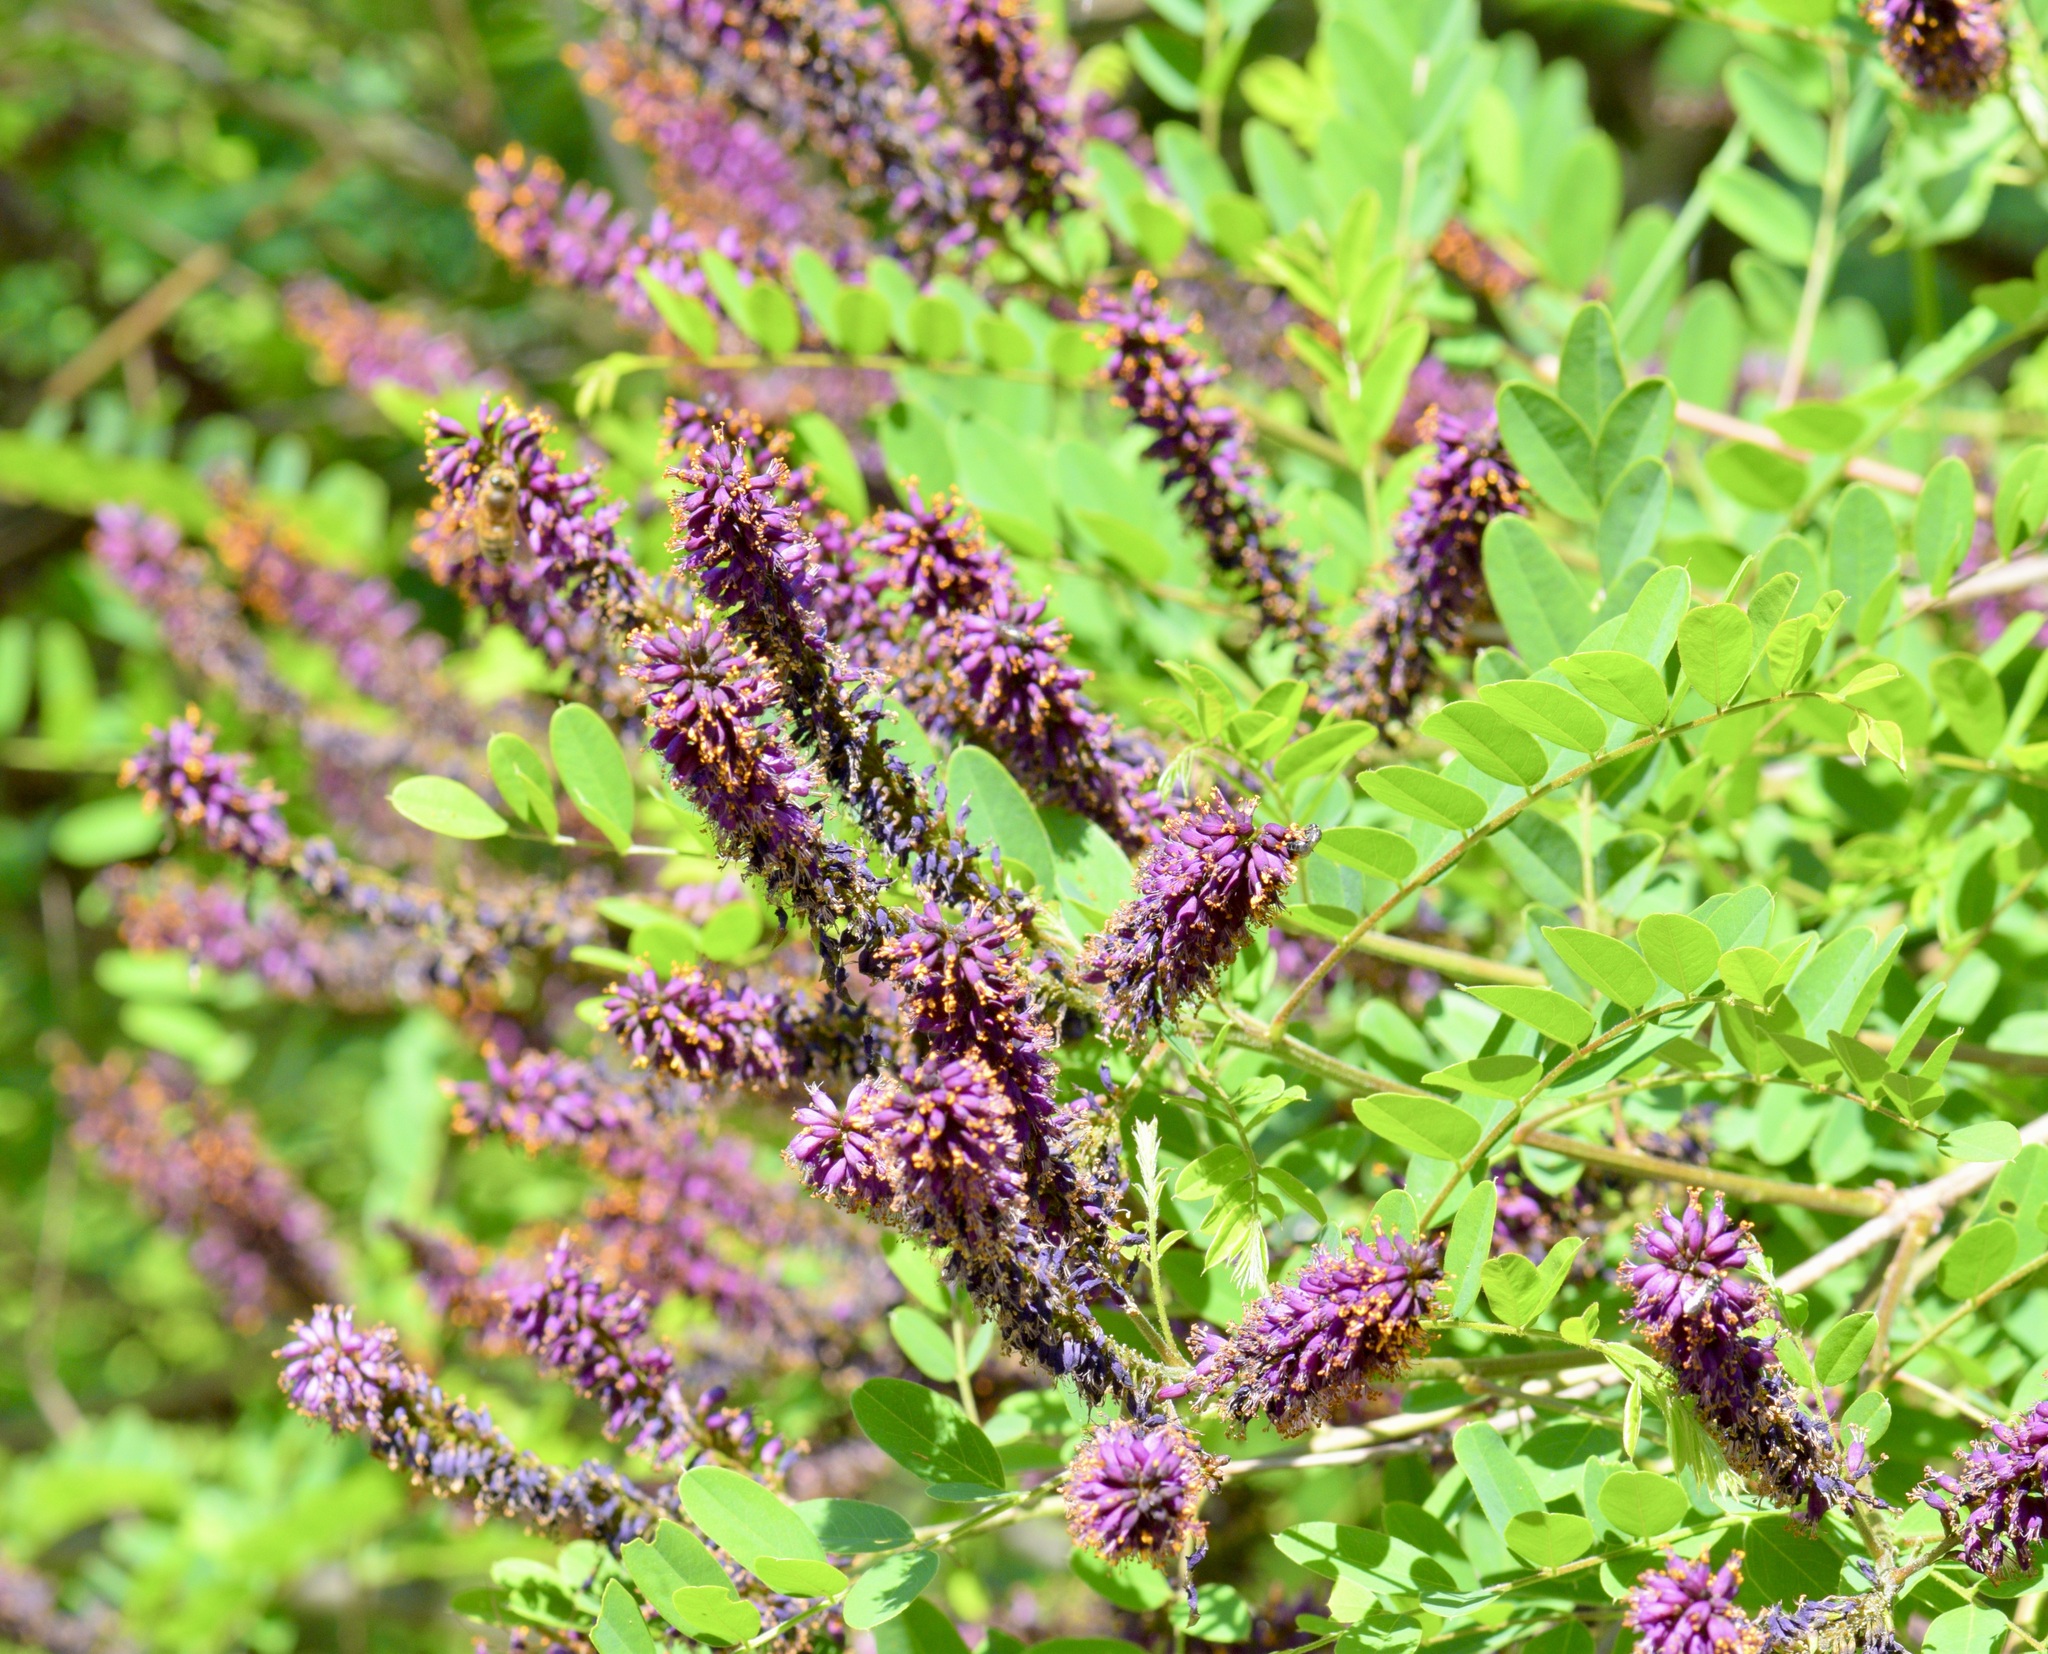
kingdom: Plantae
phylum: Tracheophyta
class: Magnoliopsida
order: Fabales
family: Fabaceae
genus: Amorpha
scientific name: Amorpha fruticosa
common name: False indigo
